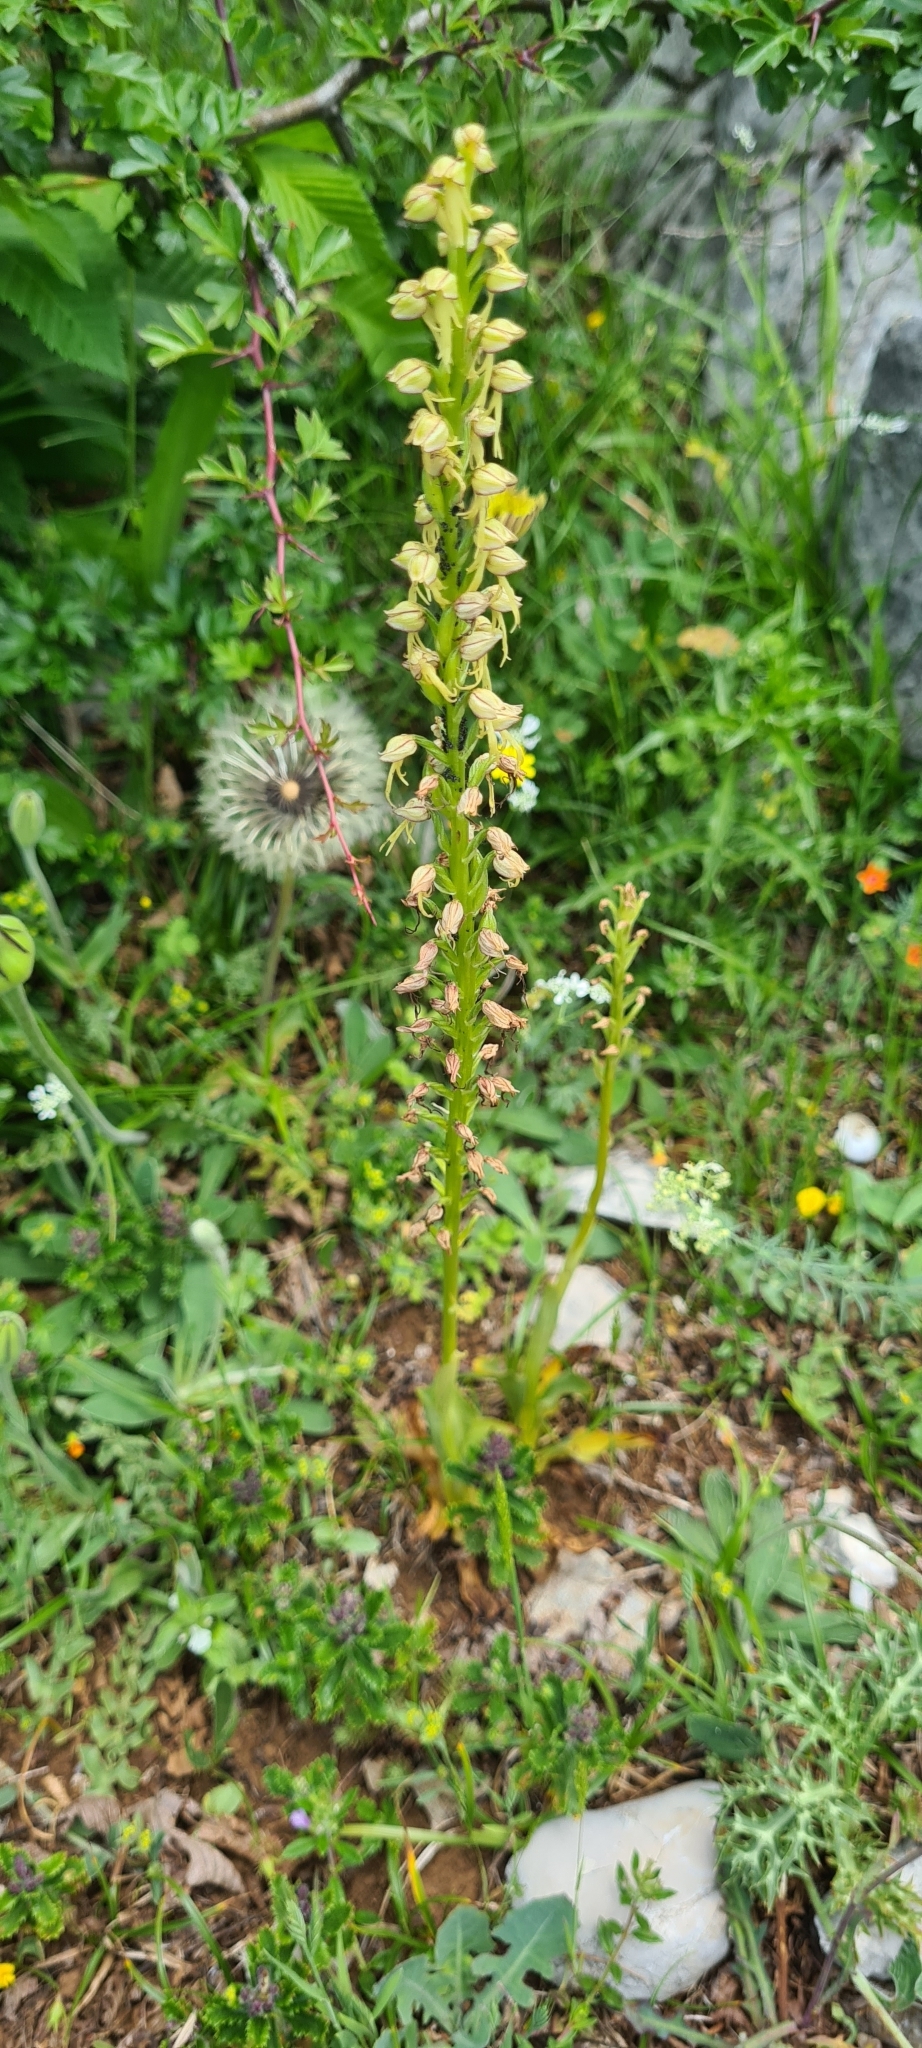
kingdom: Plantae
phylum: Tracheophyta
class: Liliopsida
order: Asparagales
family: Orchidaceae
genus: Orchis
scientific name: Orchis anthropophora
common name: Man orchid
